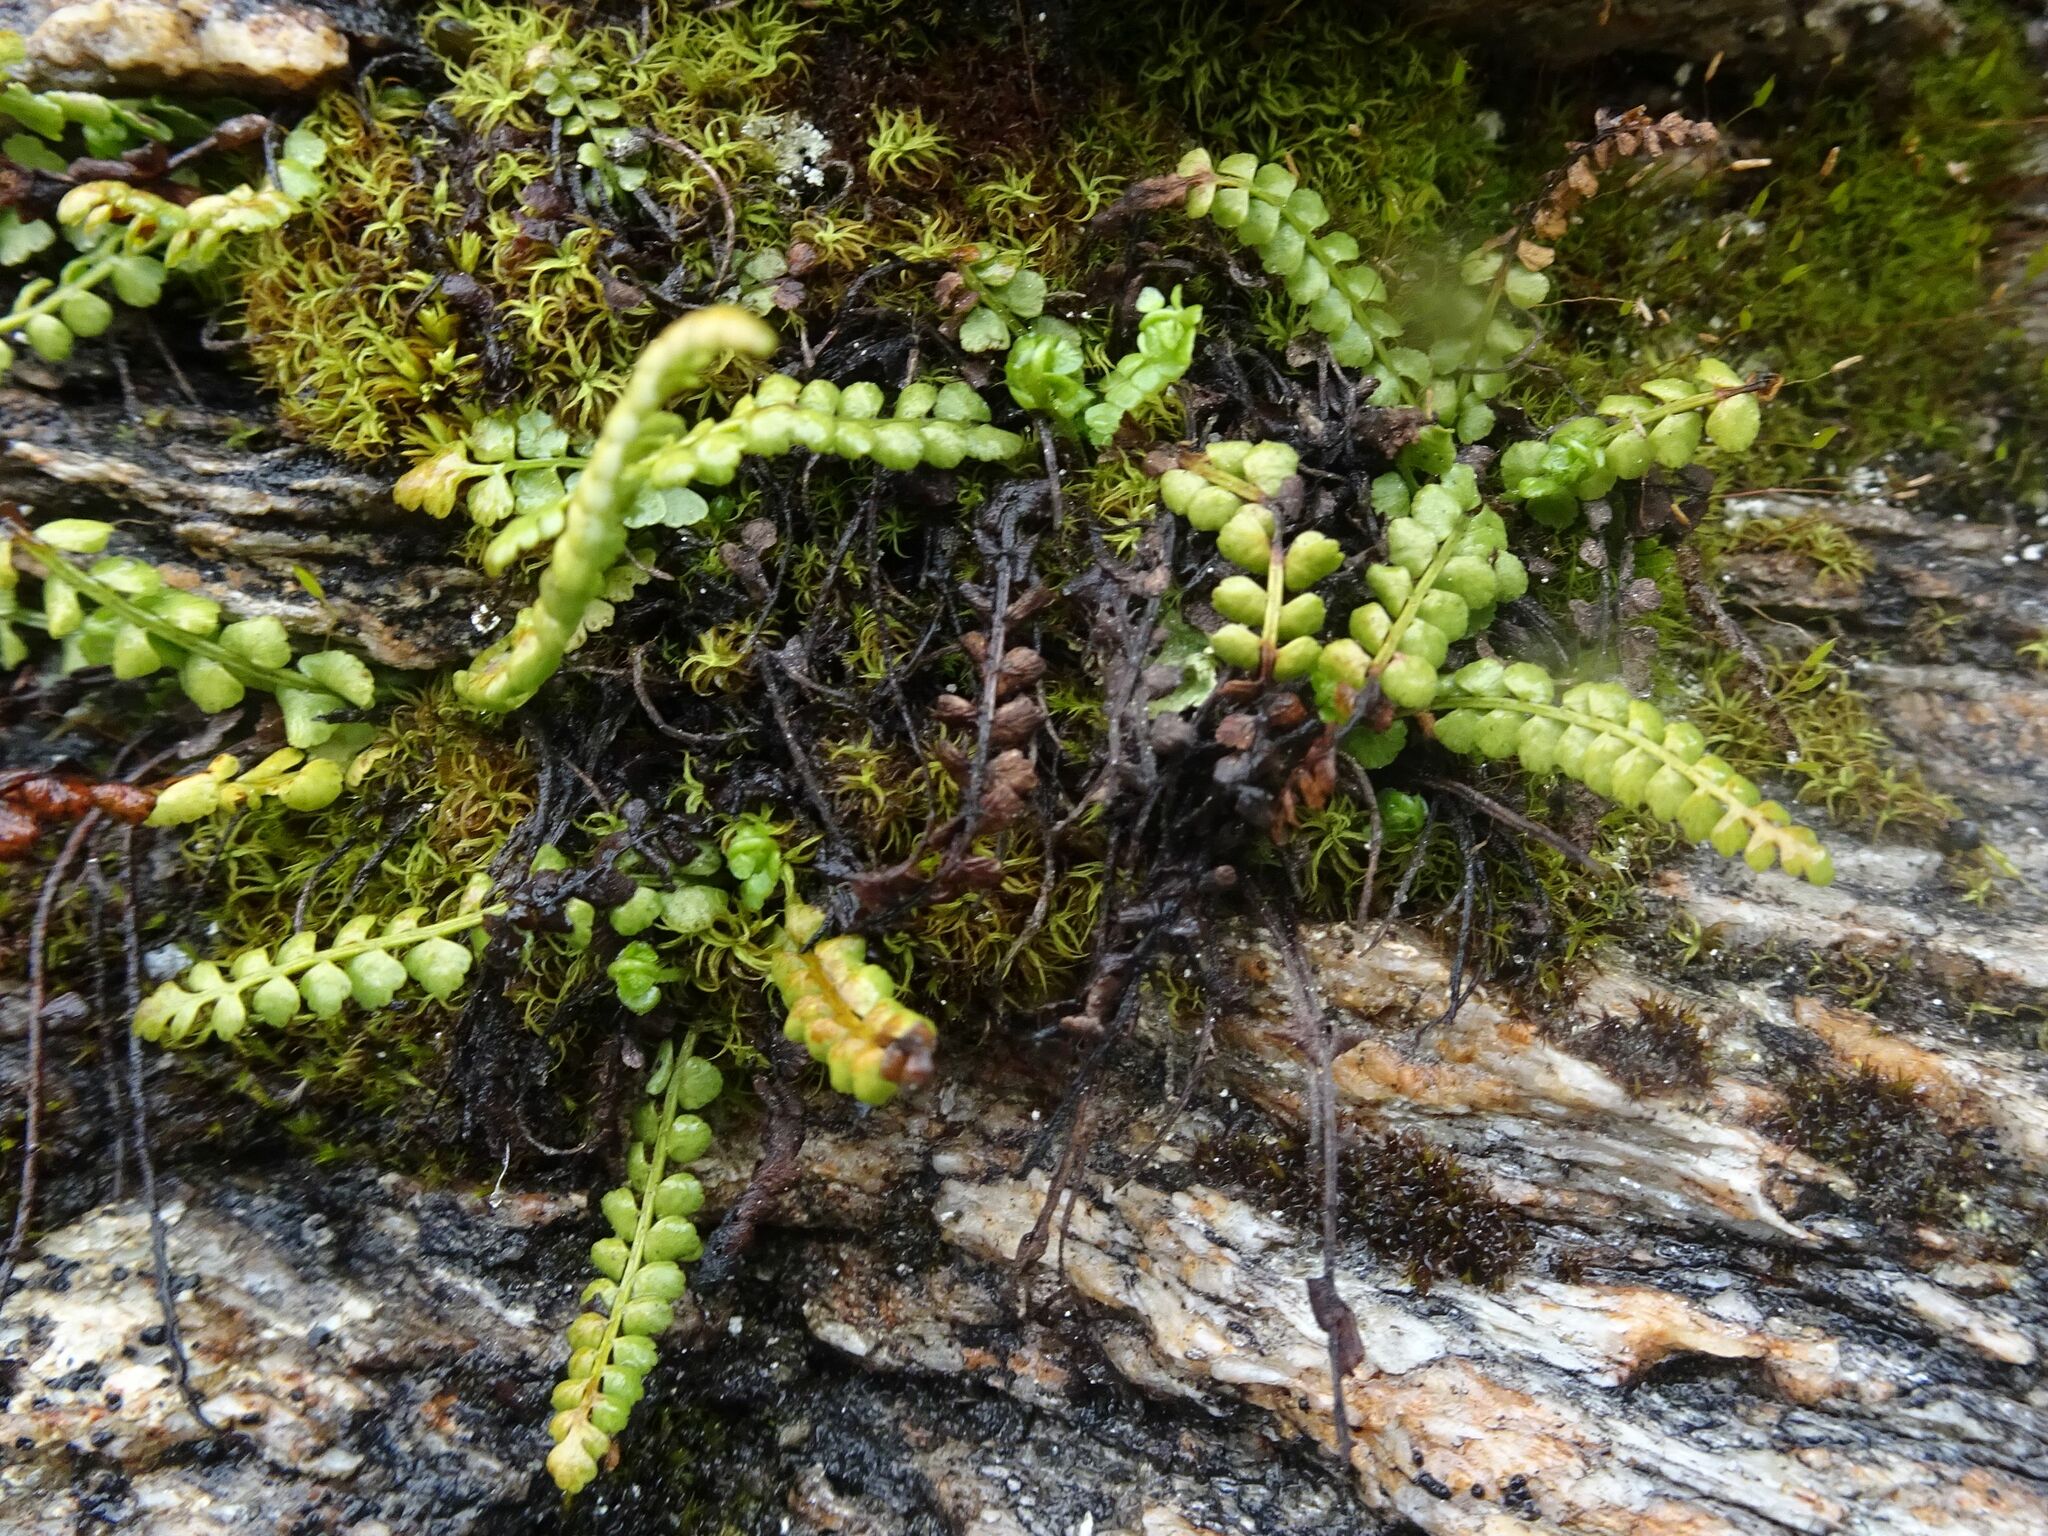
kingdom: Plantae
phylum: Tracheophyta
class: Polypodiopsida
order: Polypodiales
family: Aspleniaceae
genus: Asplenium
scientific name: Asplenium viride
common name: Green spleenwort
